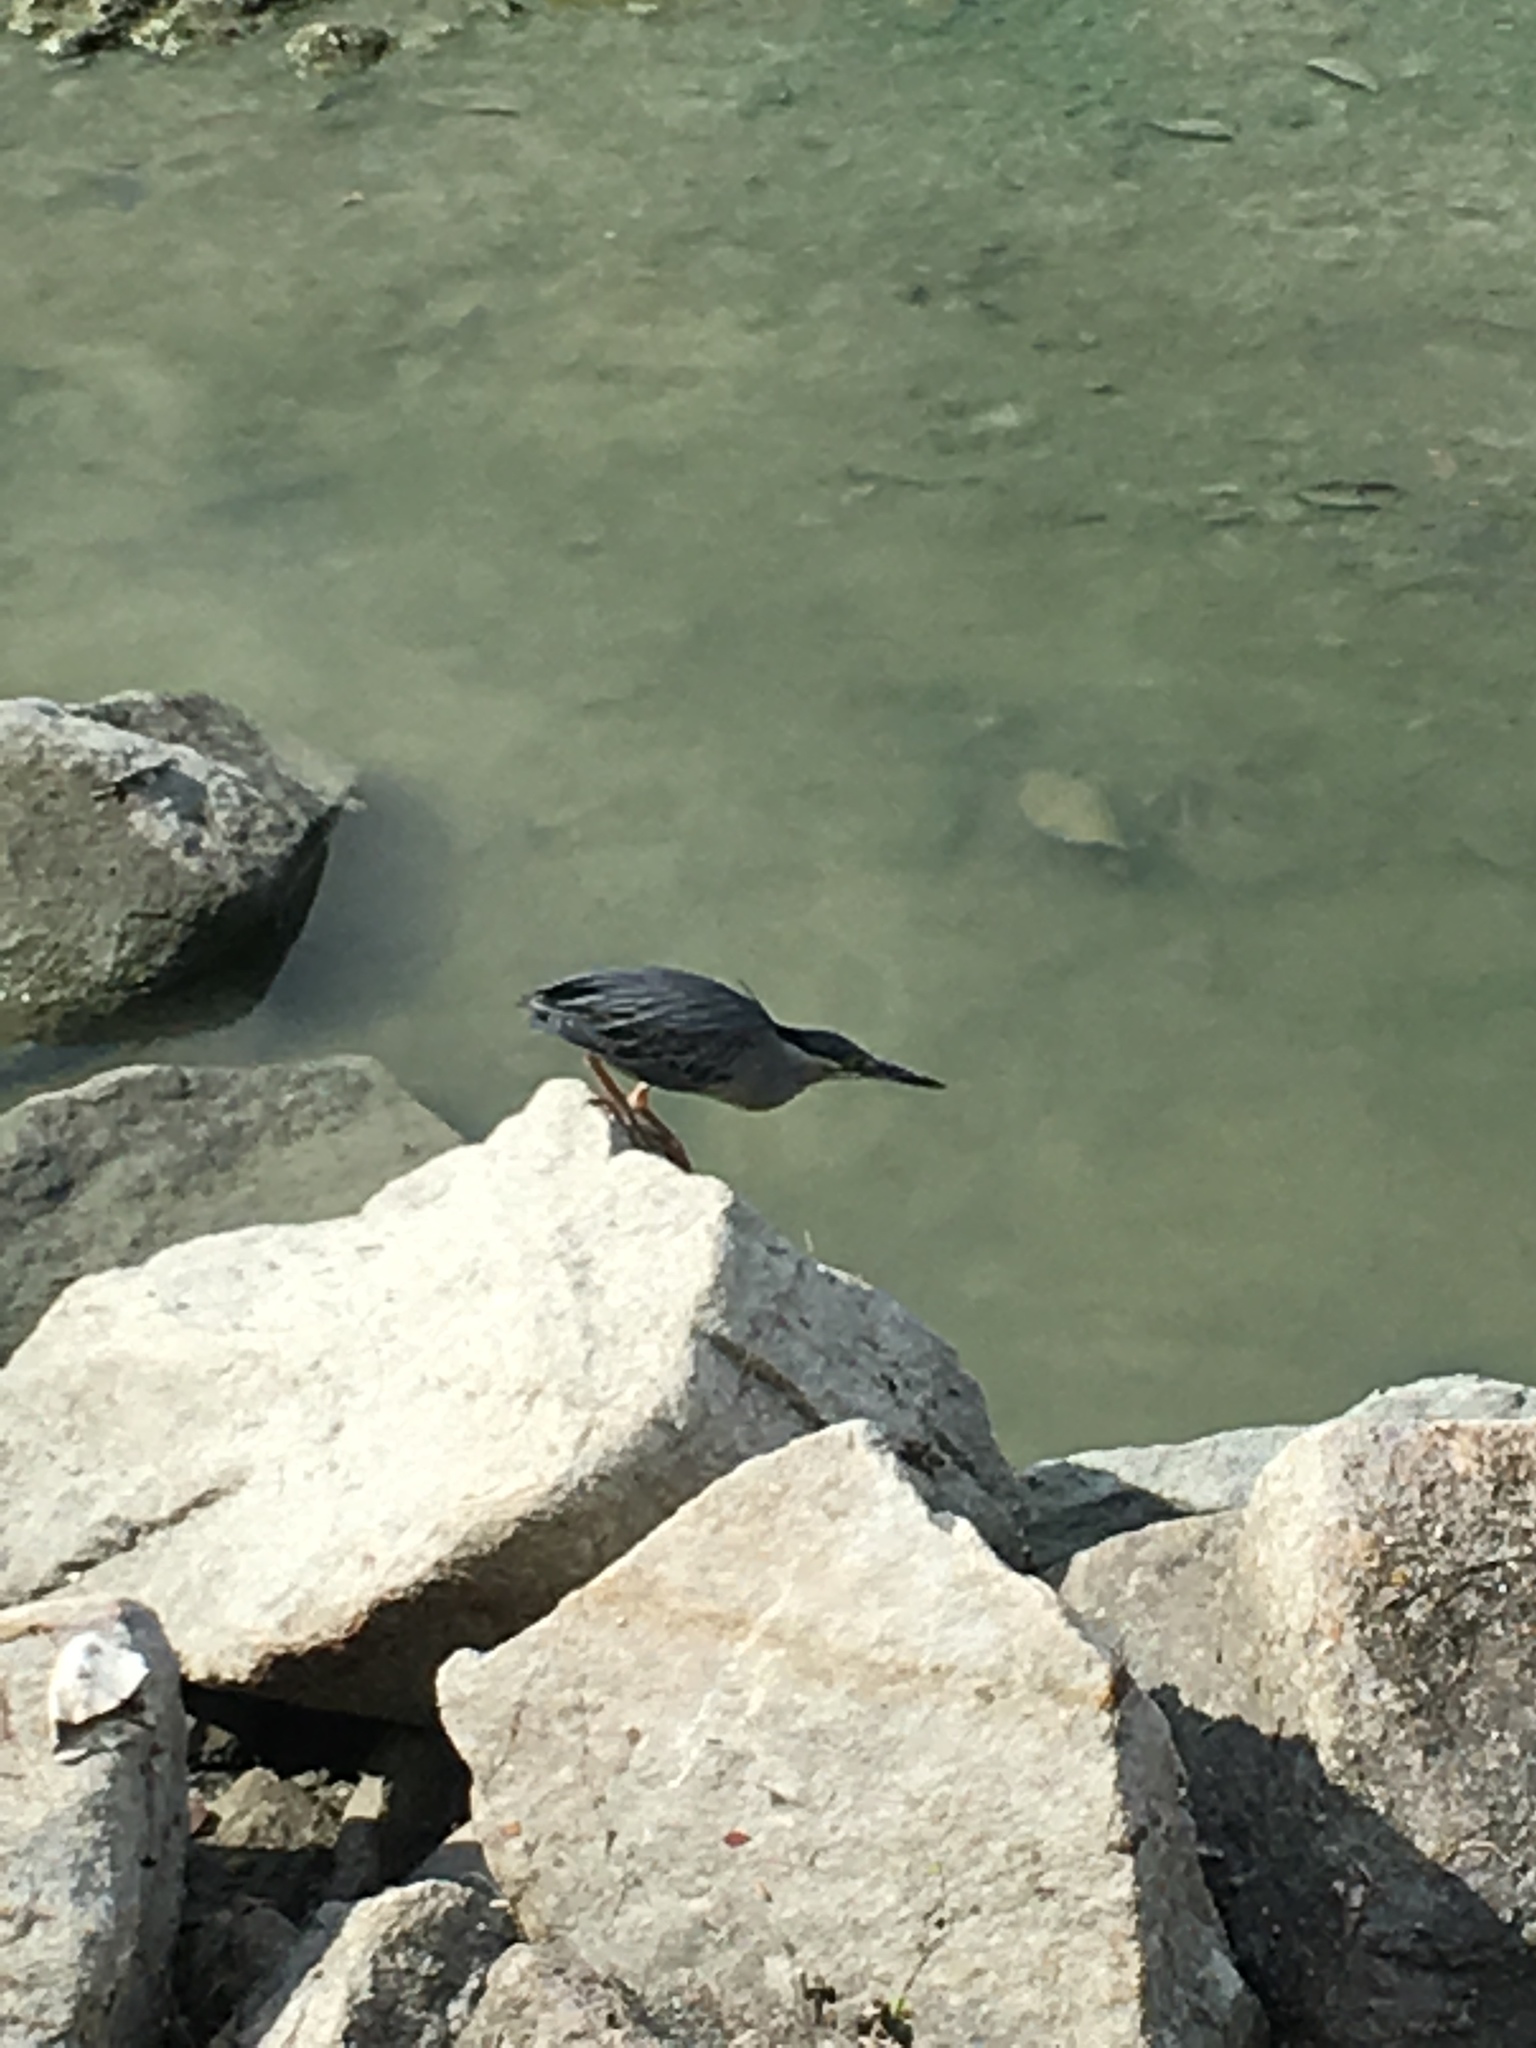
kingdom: Animalia
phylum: Chordata
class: Aves
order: Pelecaniformes
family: Ardeidae
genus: Butorides
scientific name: Butorides striata
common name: Striated heron
